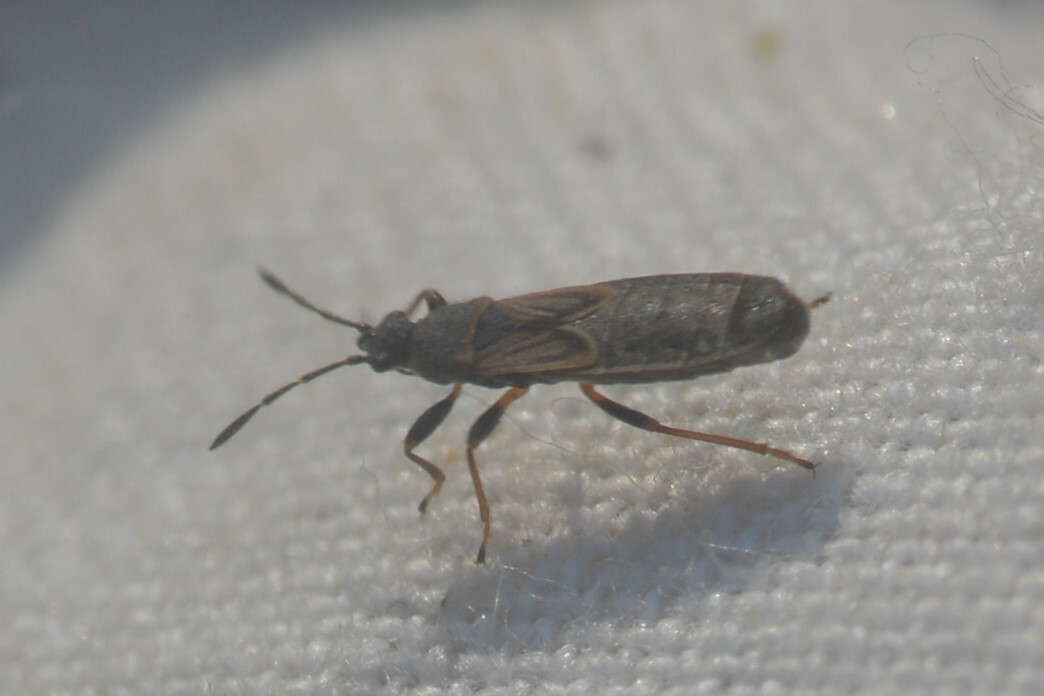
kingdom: Animalia
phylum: Arthropoda
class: Insecta
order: Hemiptera
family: Blissidae
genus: Ischnodemus
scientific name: Ischnodemus sabuleti
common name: European cinchbug
